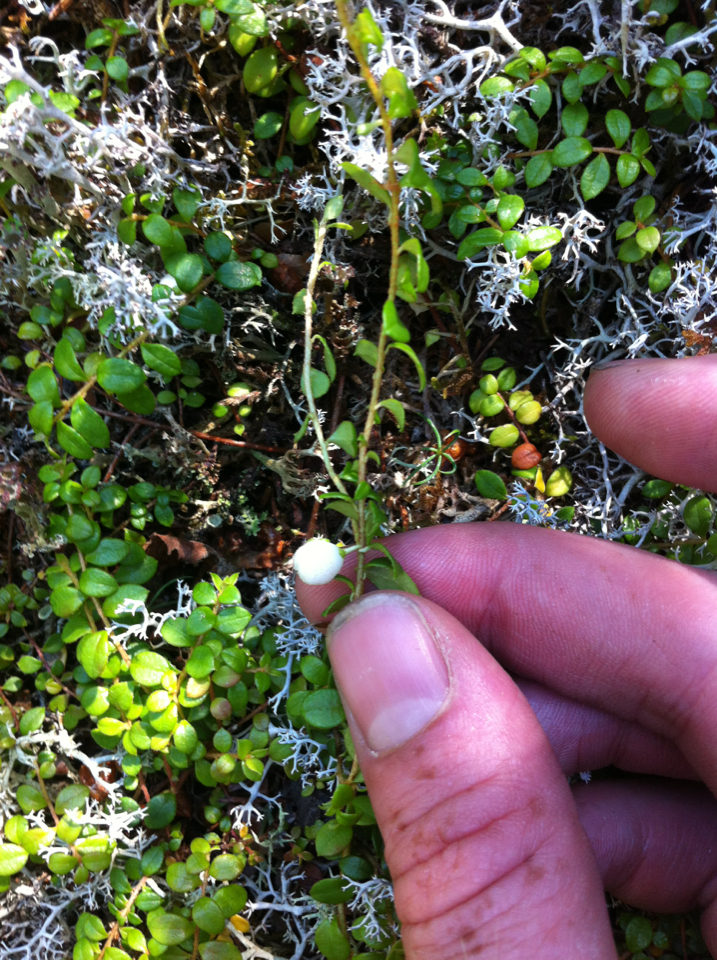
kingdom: Plantae
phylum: Tracheophyta
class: Magnoliopsida
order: Ericales
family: Ericaceae
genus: Gaultheria
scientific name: Gaultheria hispidula
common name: Cancer wintergreen
